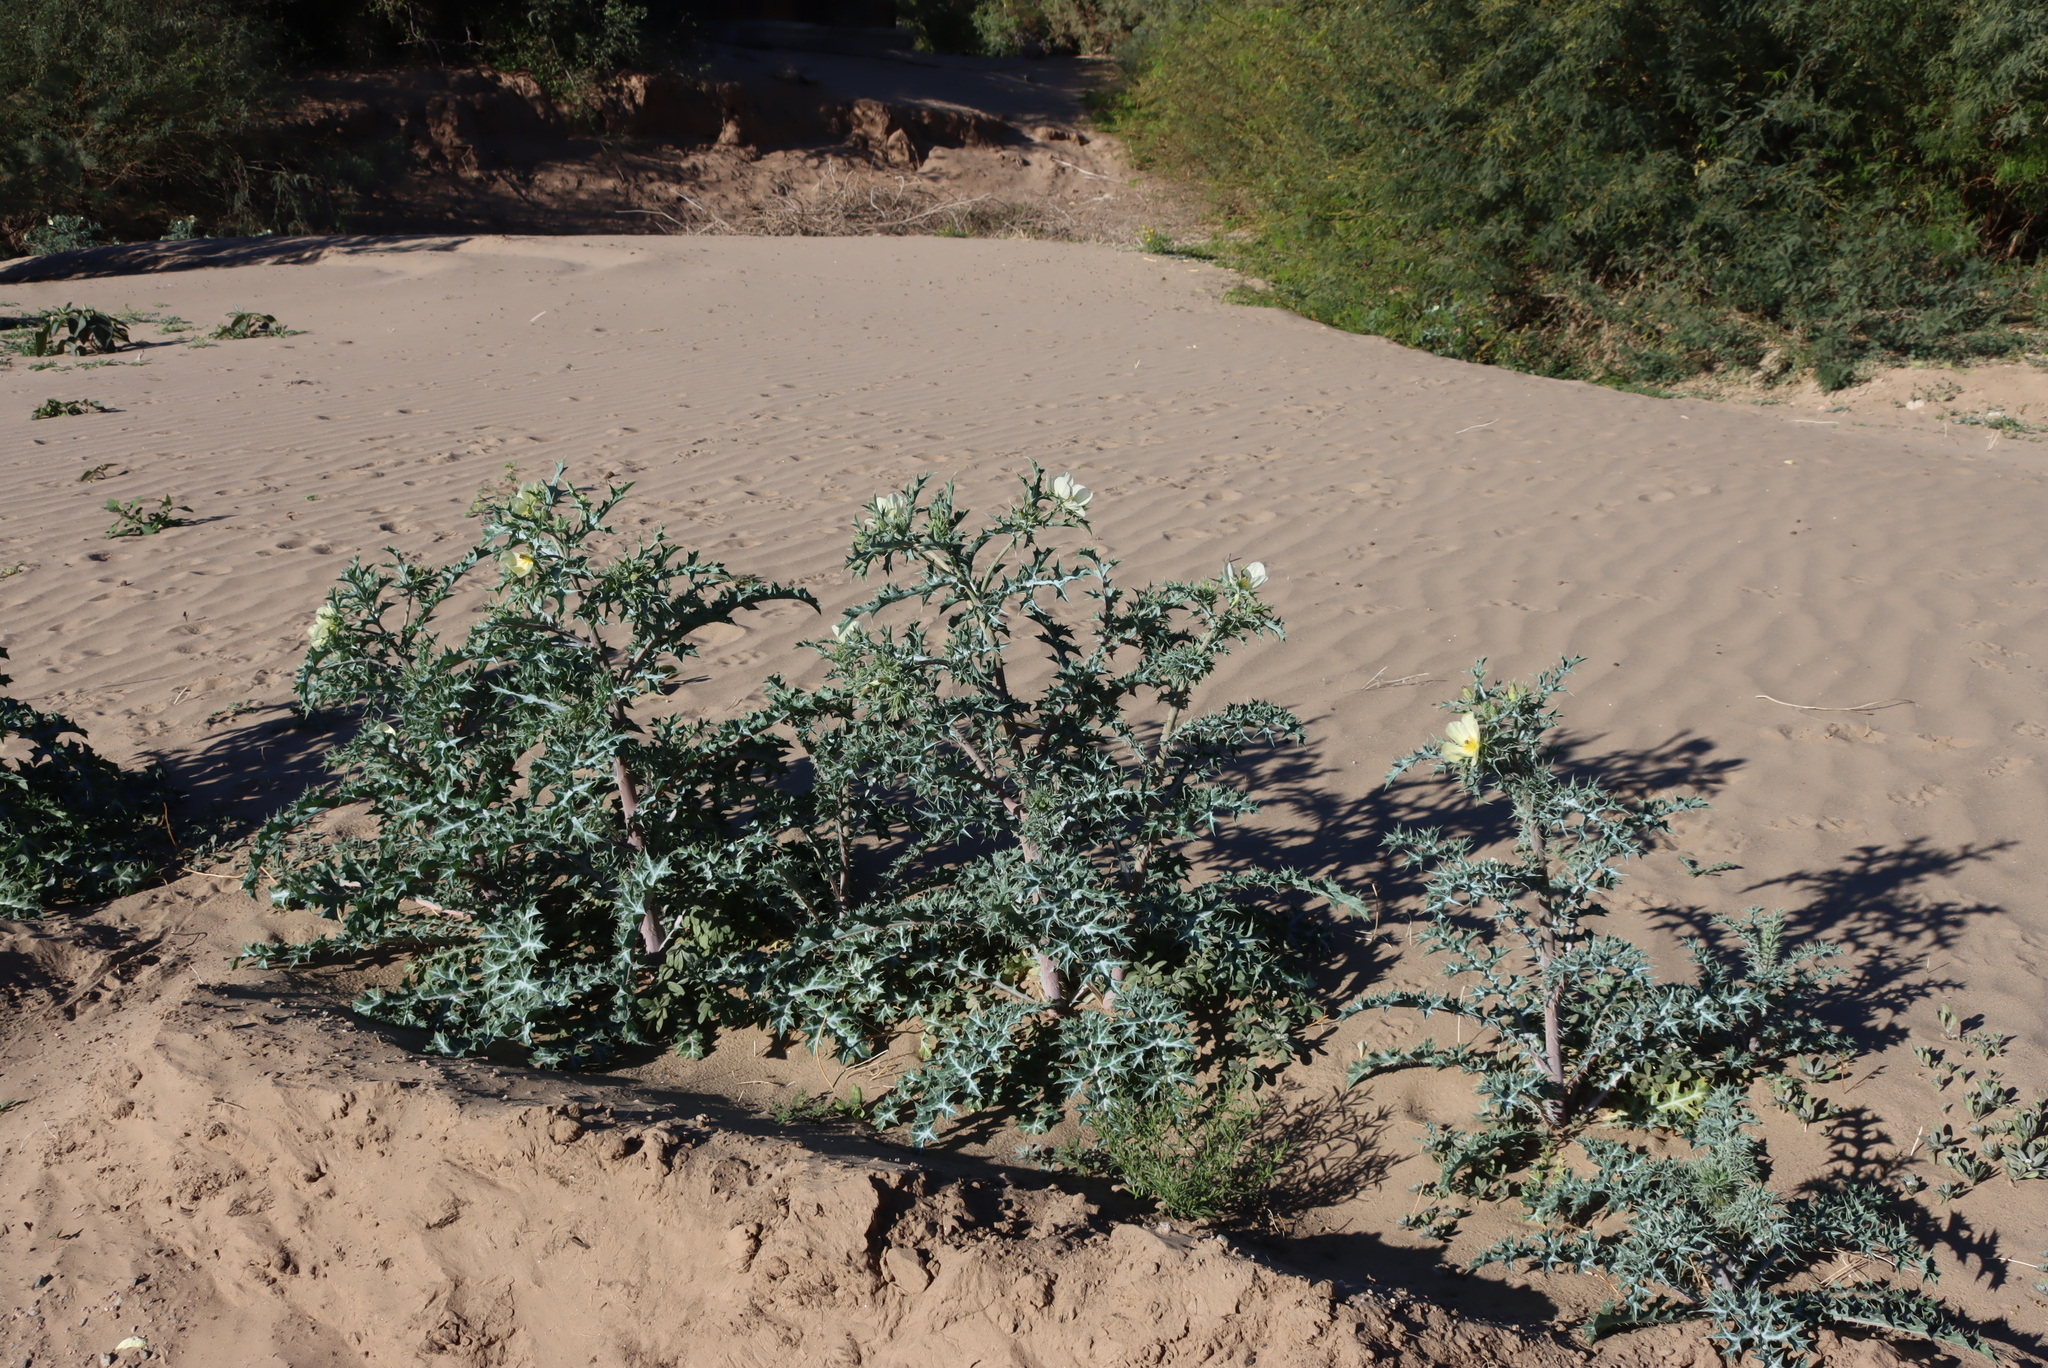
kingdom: Plantae
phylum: Tracheophyta
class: Magnoliopsida
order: Ranunculales
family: Papaveraceae
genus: Argemone
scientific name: Argemone ochroleuca
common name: White-flower mexican-poppy
